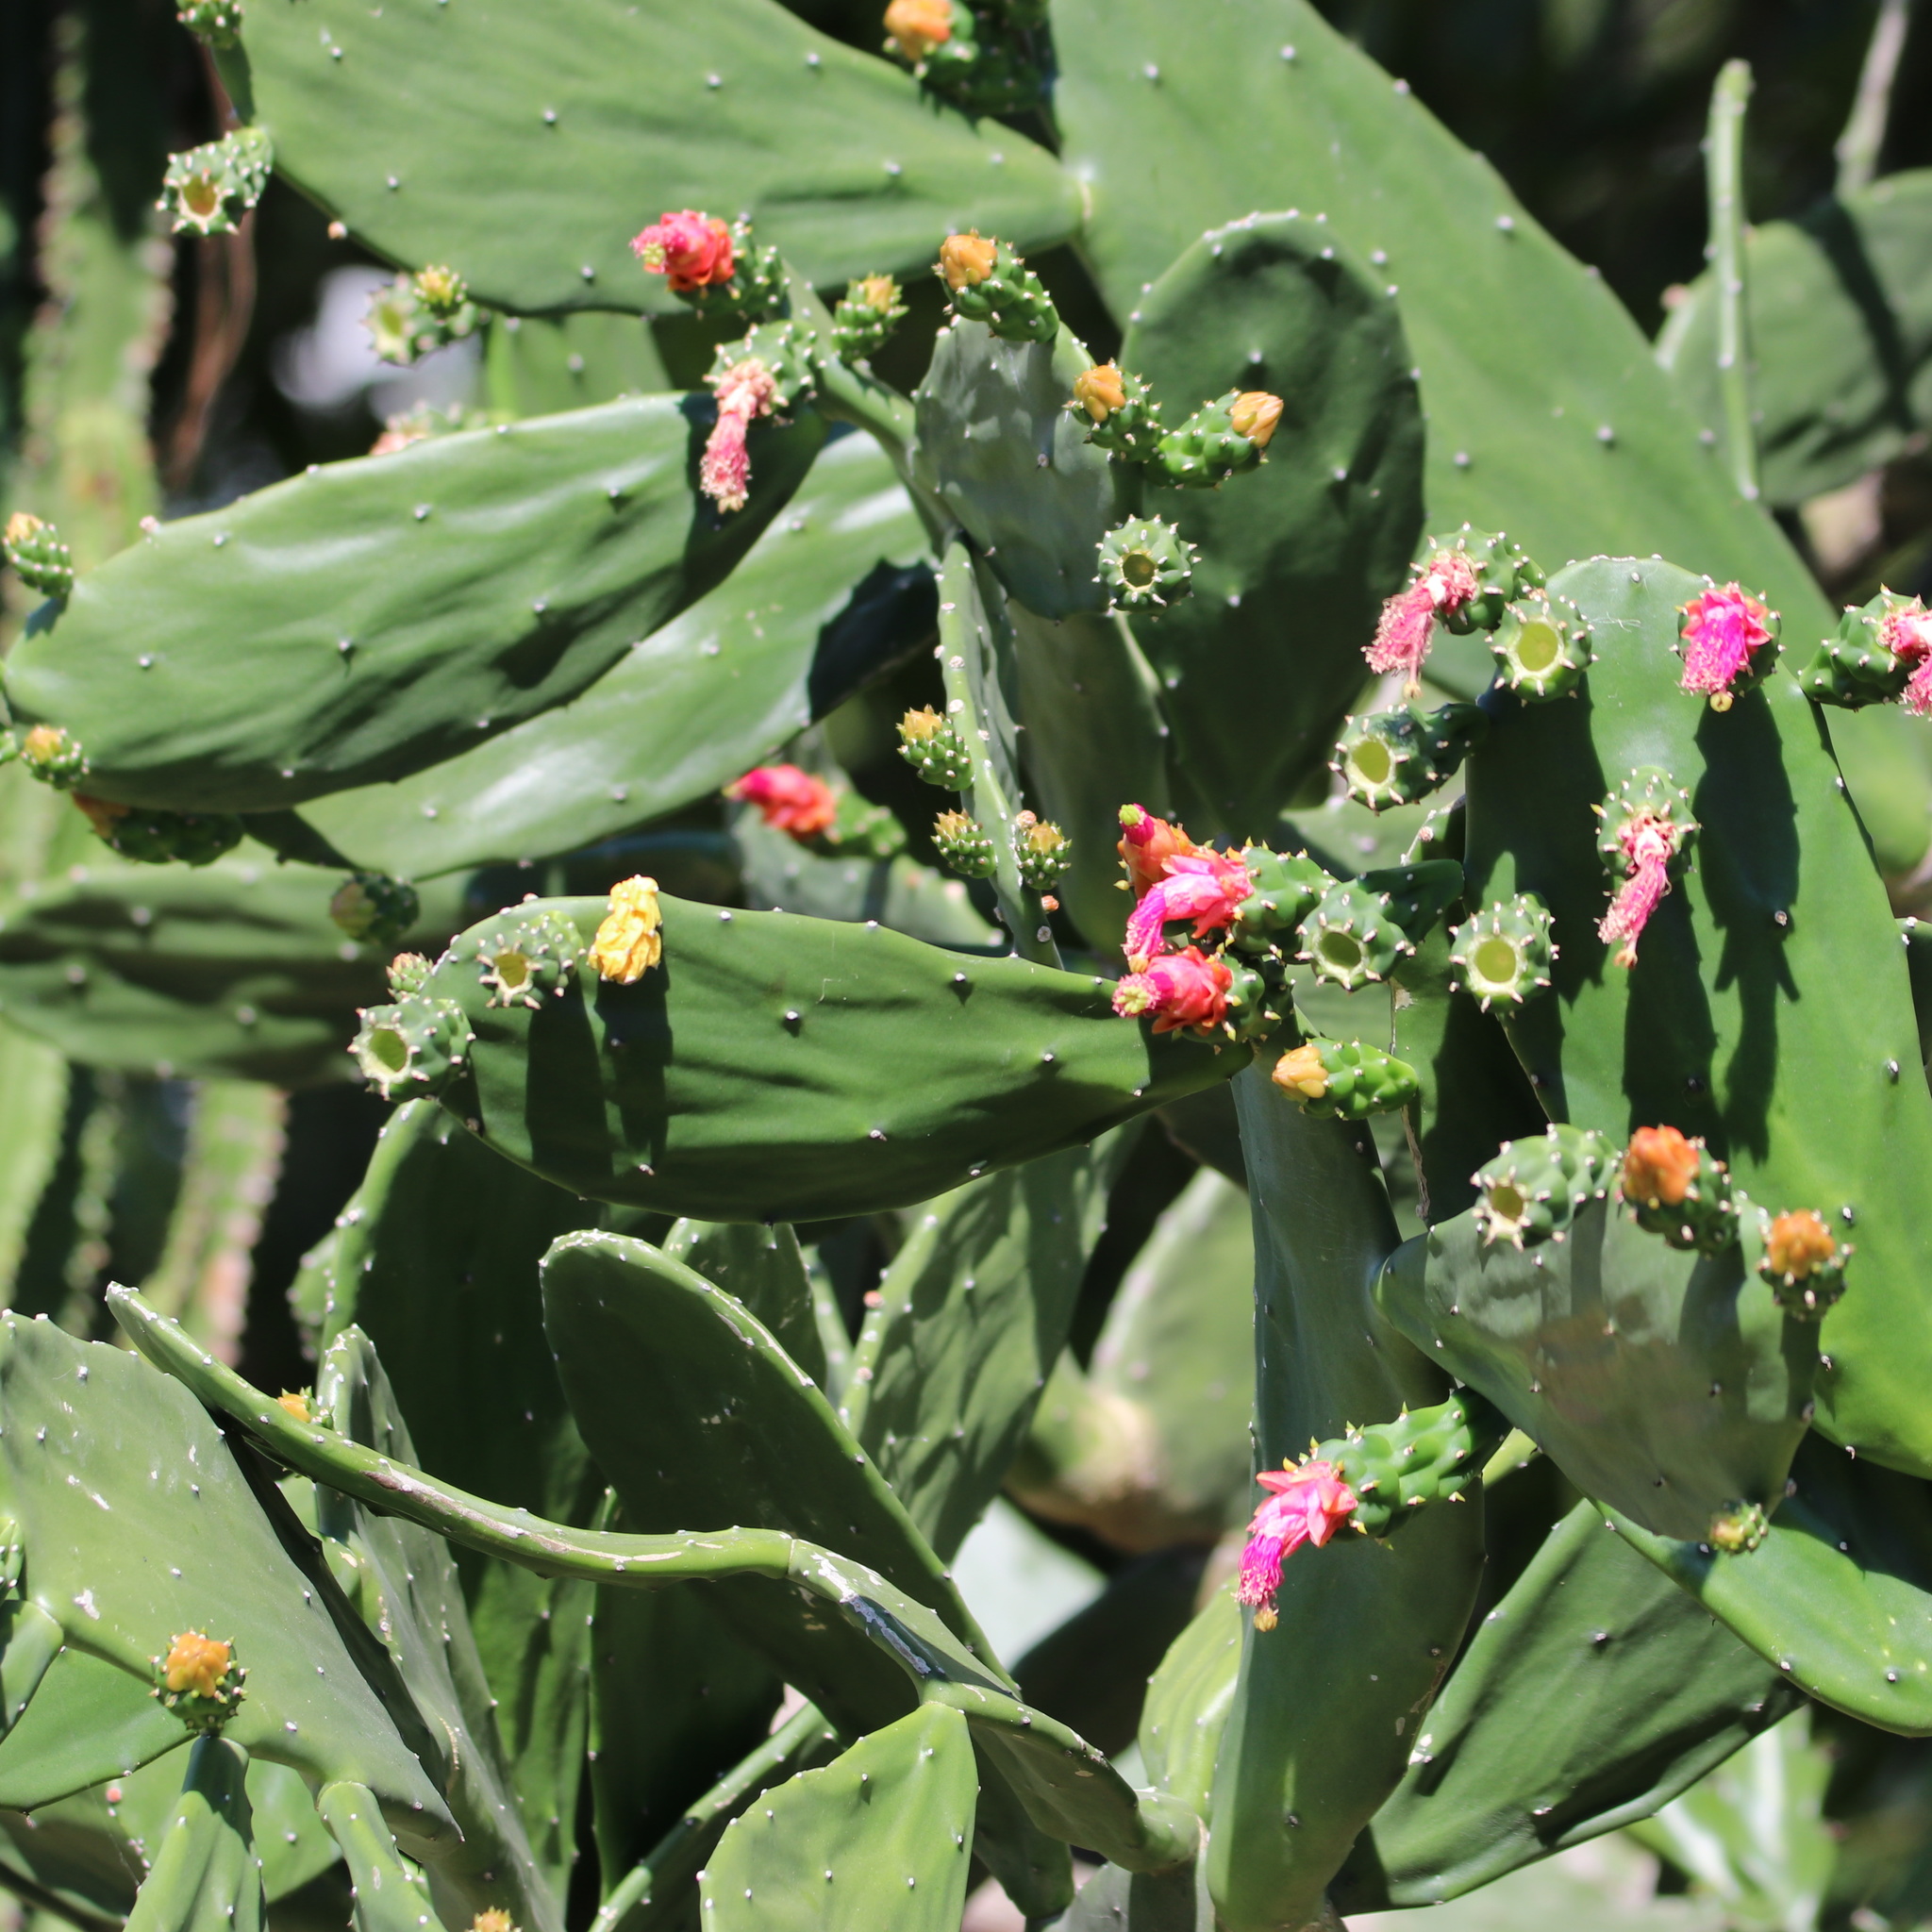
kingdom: Plantae
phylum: Tracheophyta
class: Magnoliopsida
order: Caryophyllales
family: Cactaceae
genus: Opuntia
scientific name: Opuntia cochenillifera
